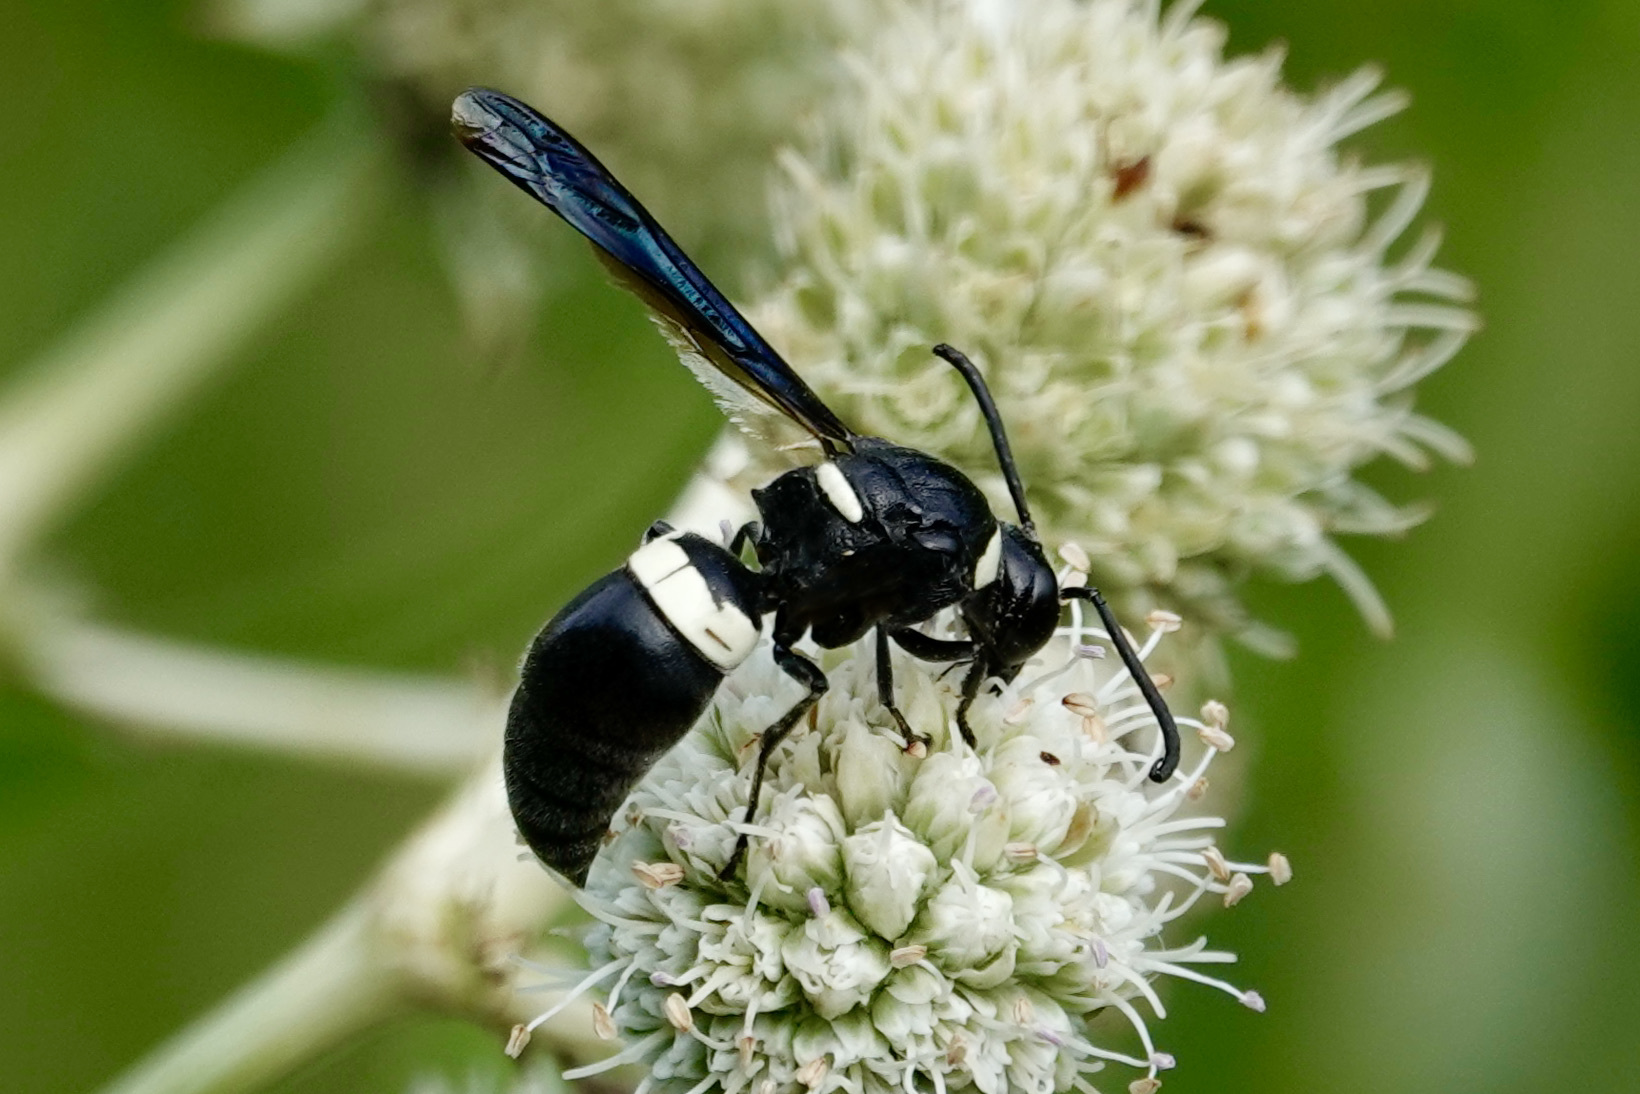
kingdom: Animalia
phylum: Arthropoda
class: Insecta
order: Hymenoptera
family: Eumenidae
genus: Monobia
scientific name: Monobia quadridens
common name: Four-toothed mason wasp
